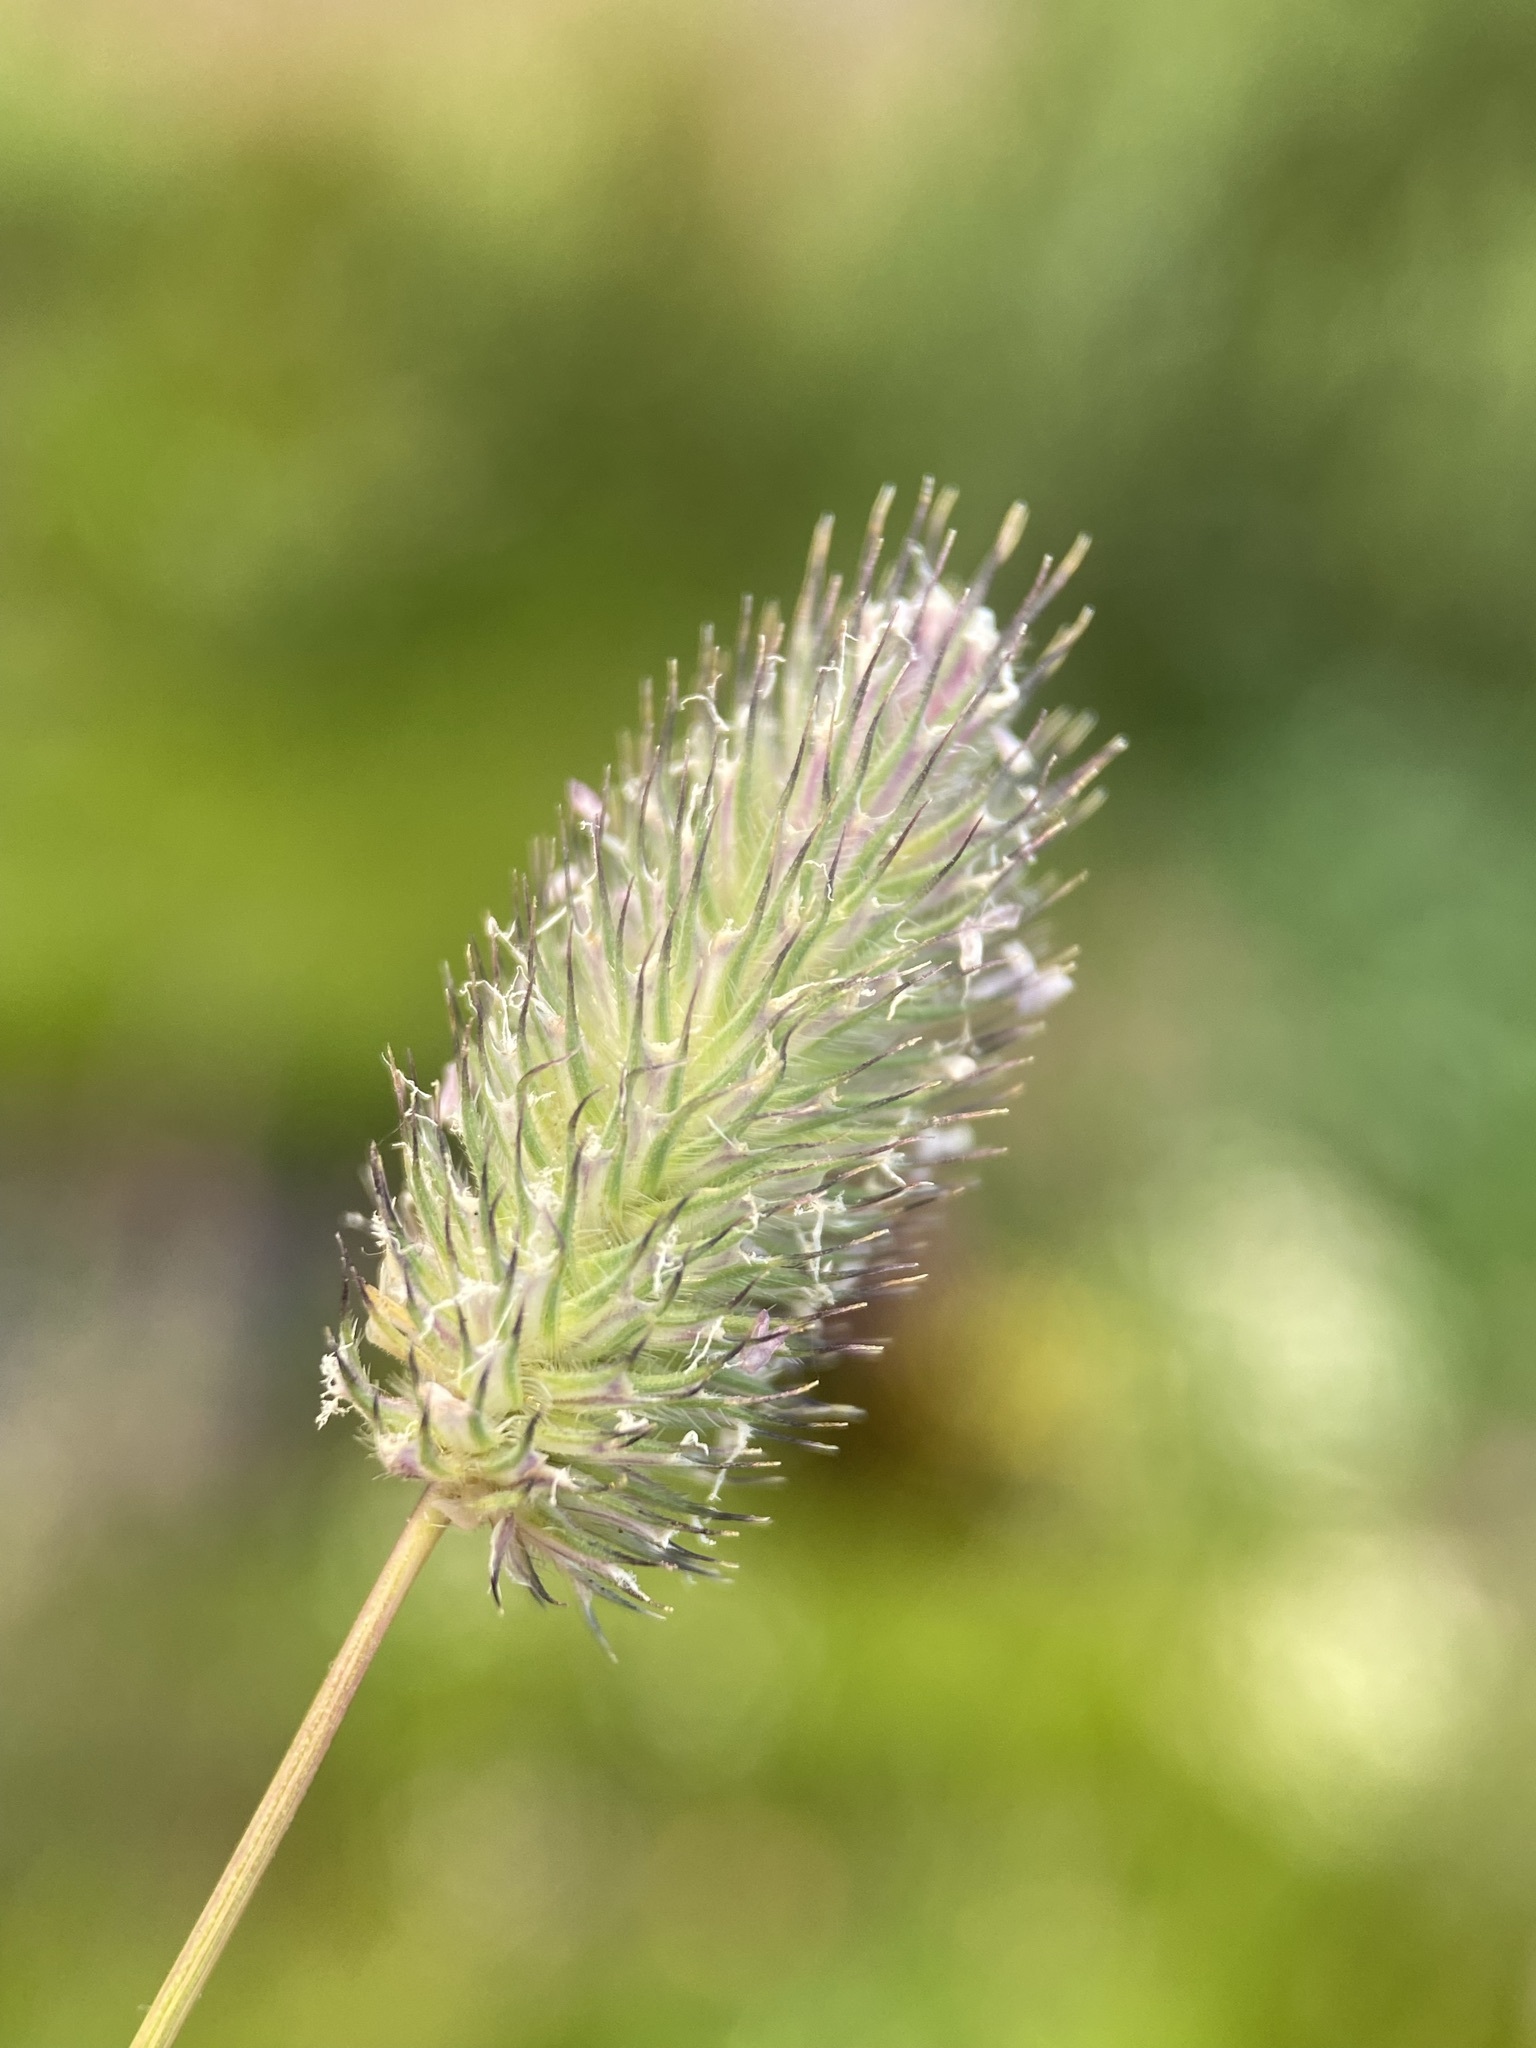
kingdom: Plantae
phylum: Tracheophyta
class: Liliopsida
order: Poales
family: Poaceae
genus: Phleum
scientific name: Phleum alpinum
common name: Alpine cat's-tail
